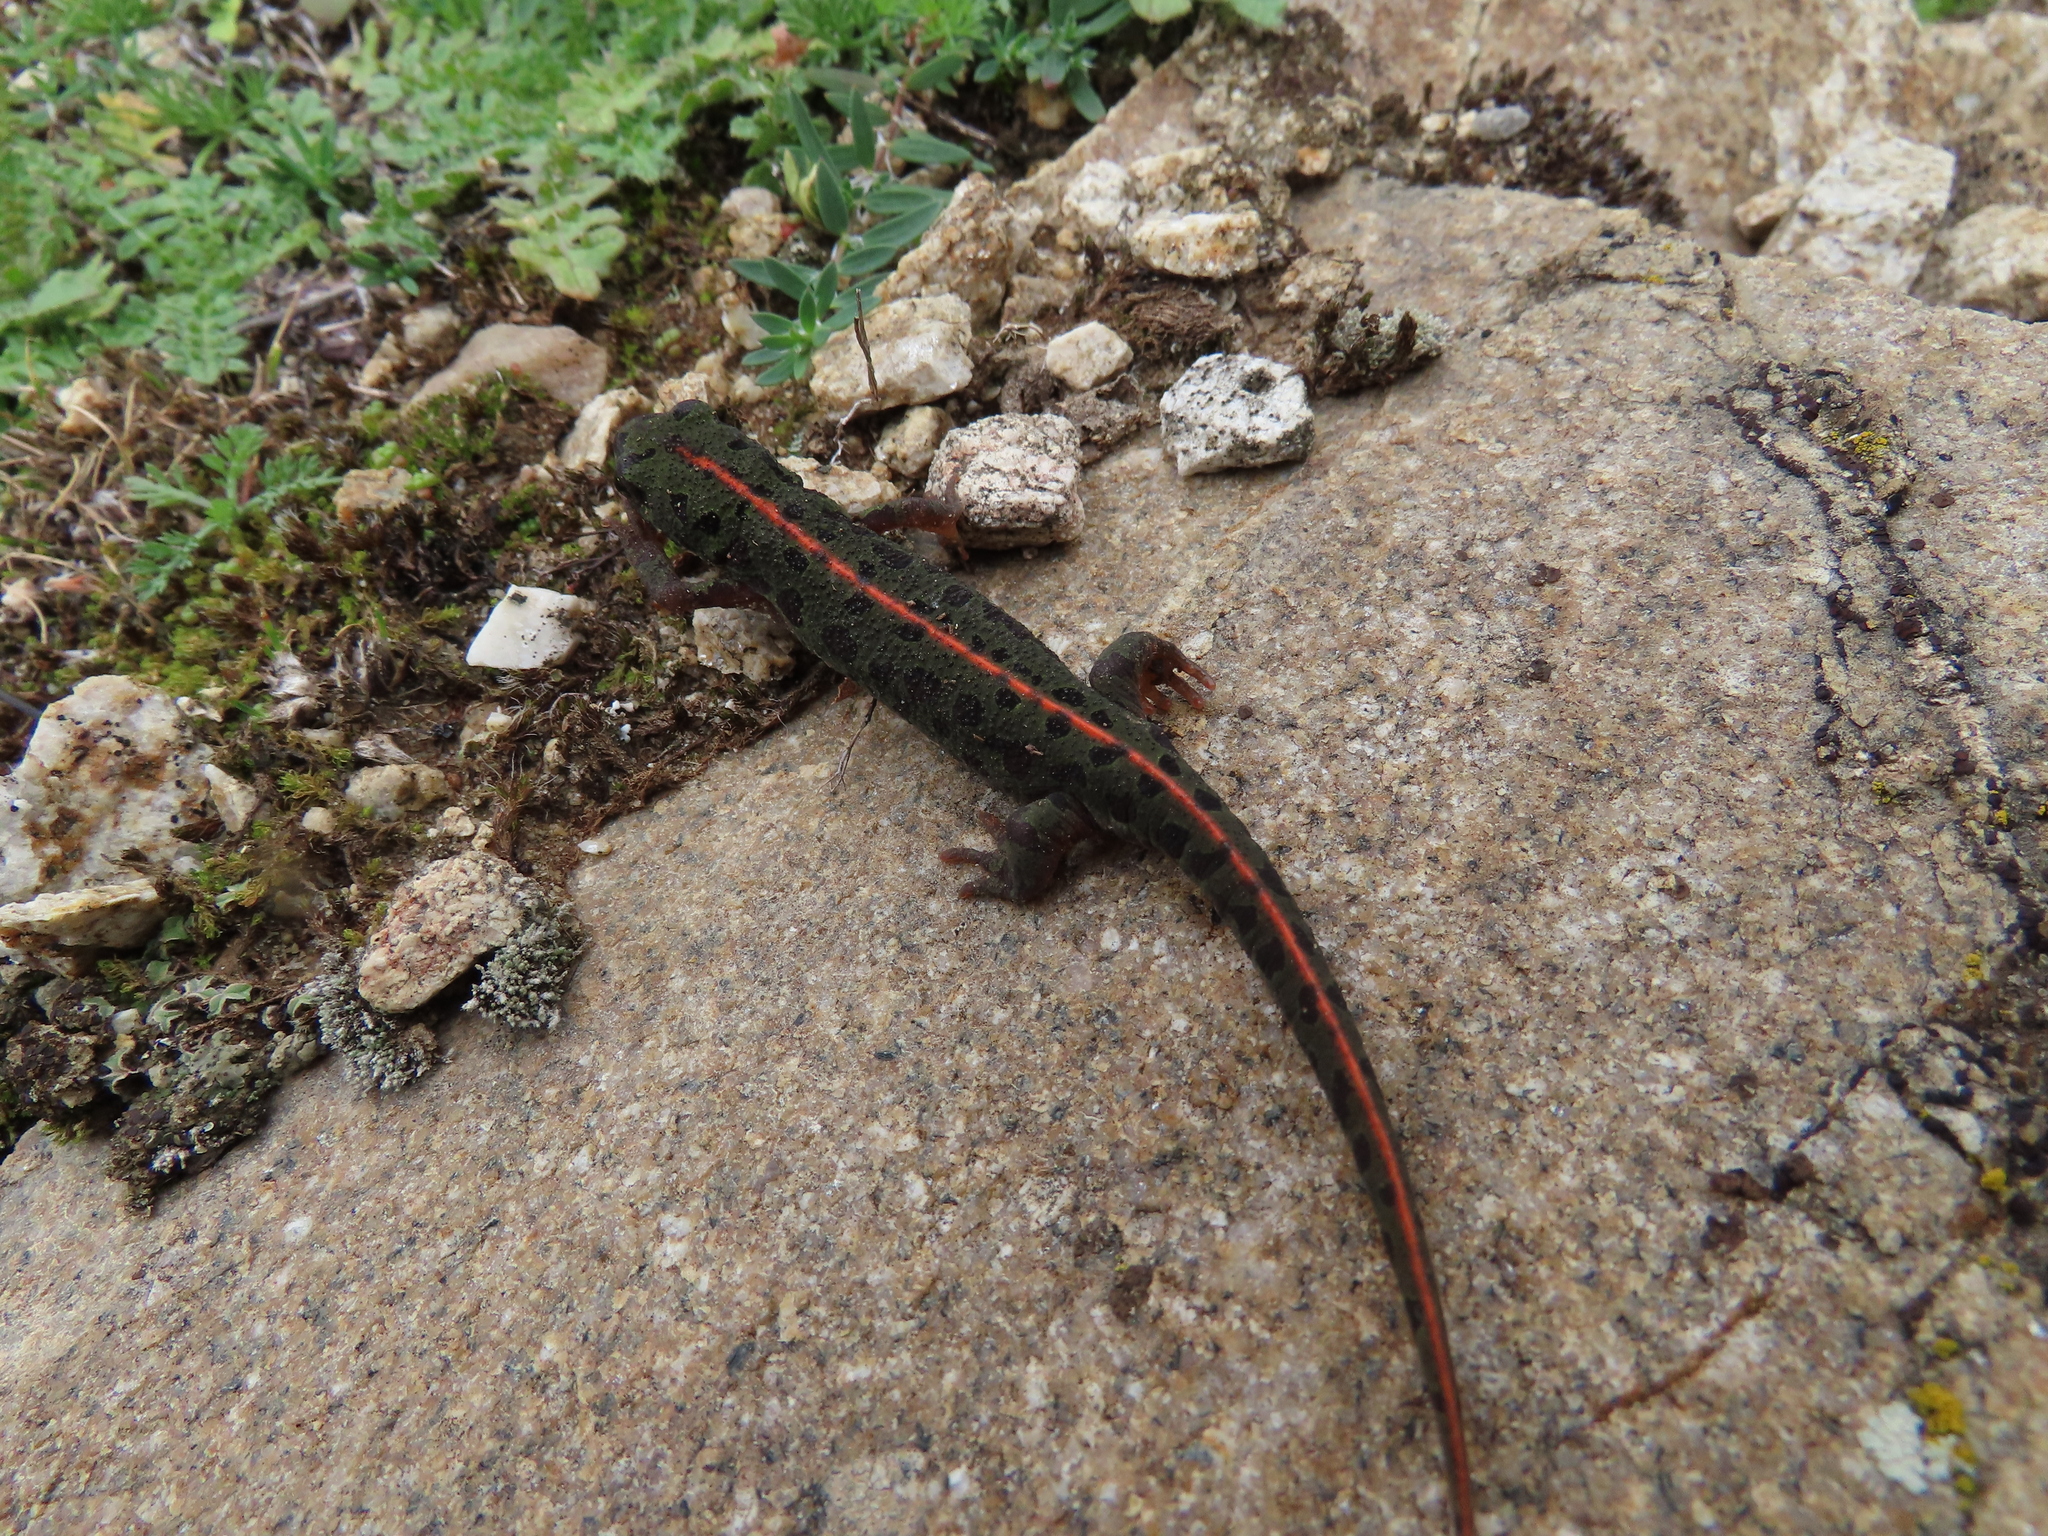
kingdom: Animalia
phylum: Chordata
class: Amphibia
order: Caudata
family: Salamandridae
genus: Triturus
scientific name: Triturus pygmaeus
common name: Southern marbled newt
